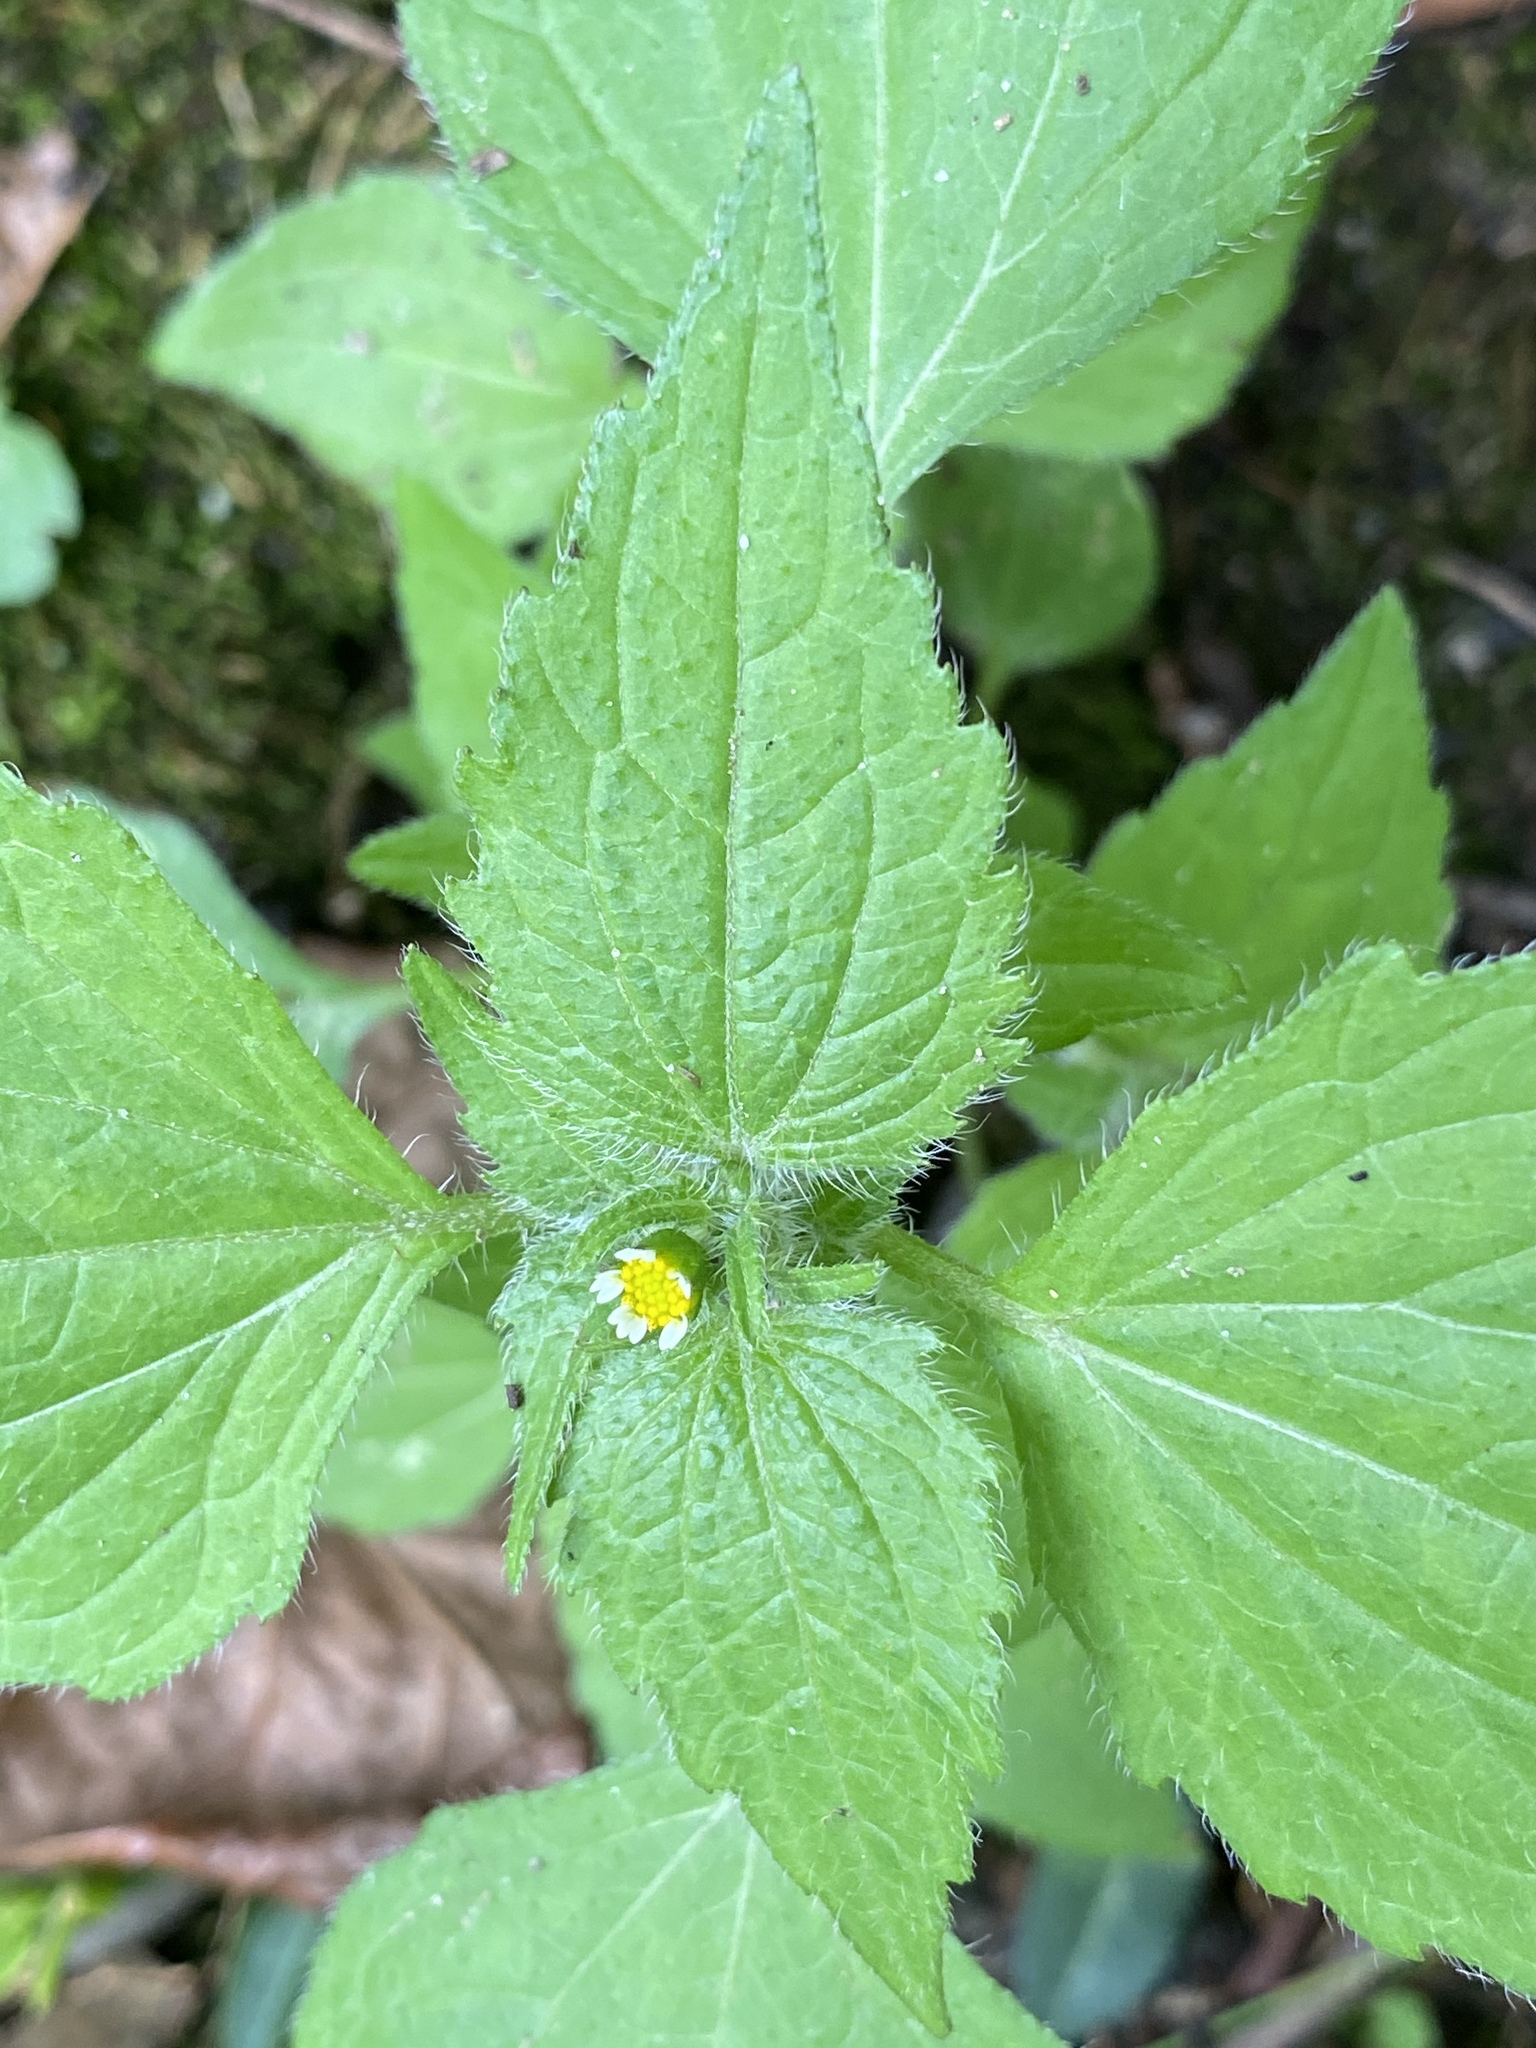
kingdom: Plantae
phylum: Tracheophyta
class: Magnoliopsida
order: Asterales
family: Asteraceae
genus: Galinsoga
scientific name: Galinsoga quadriradiata
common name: Shaggy soldier
